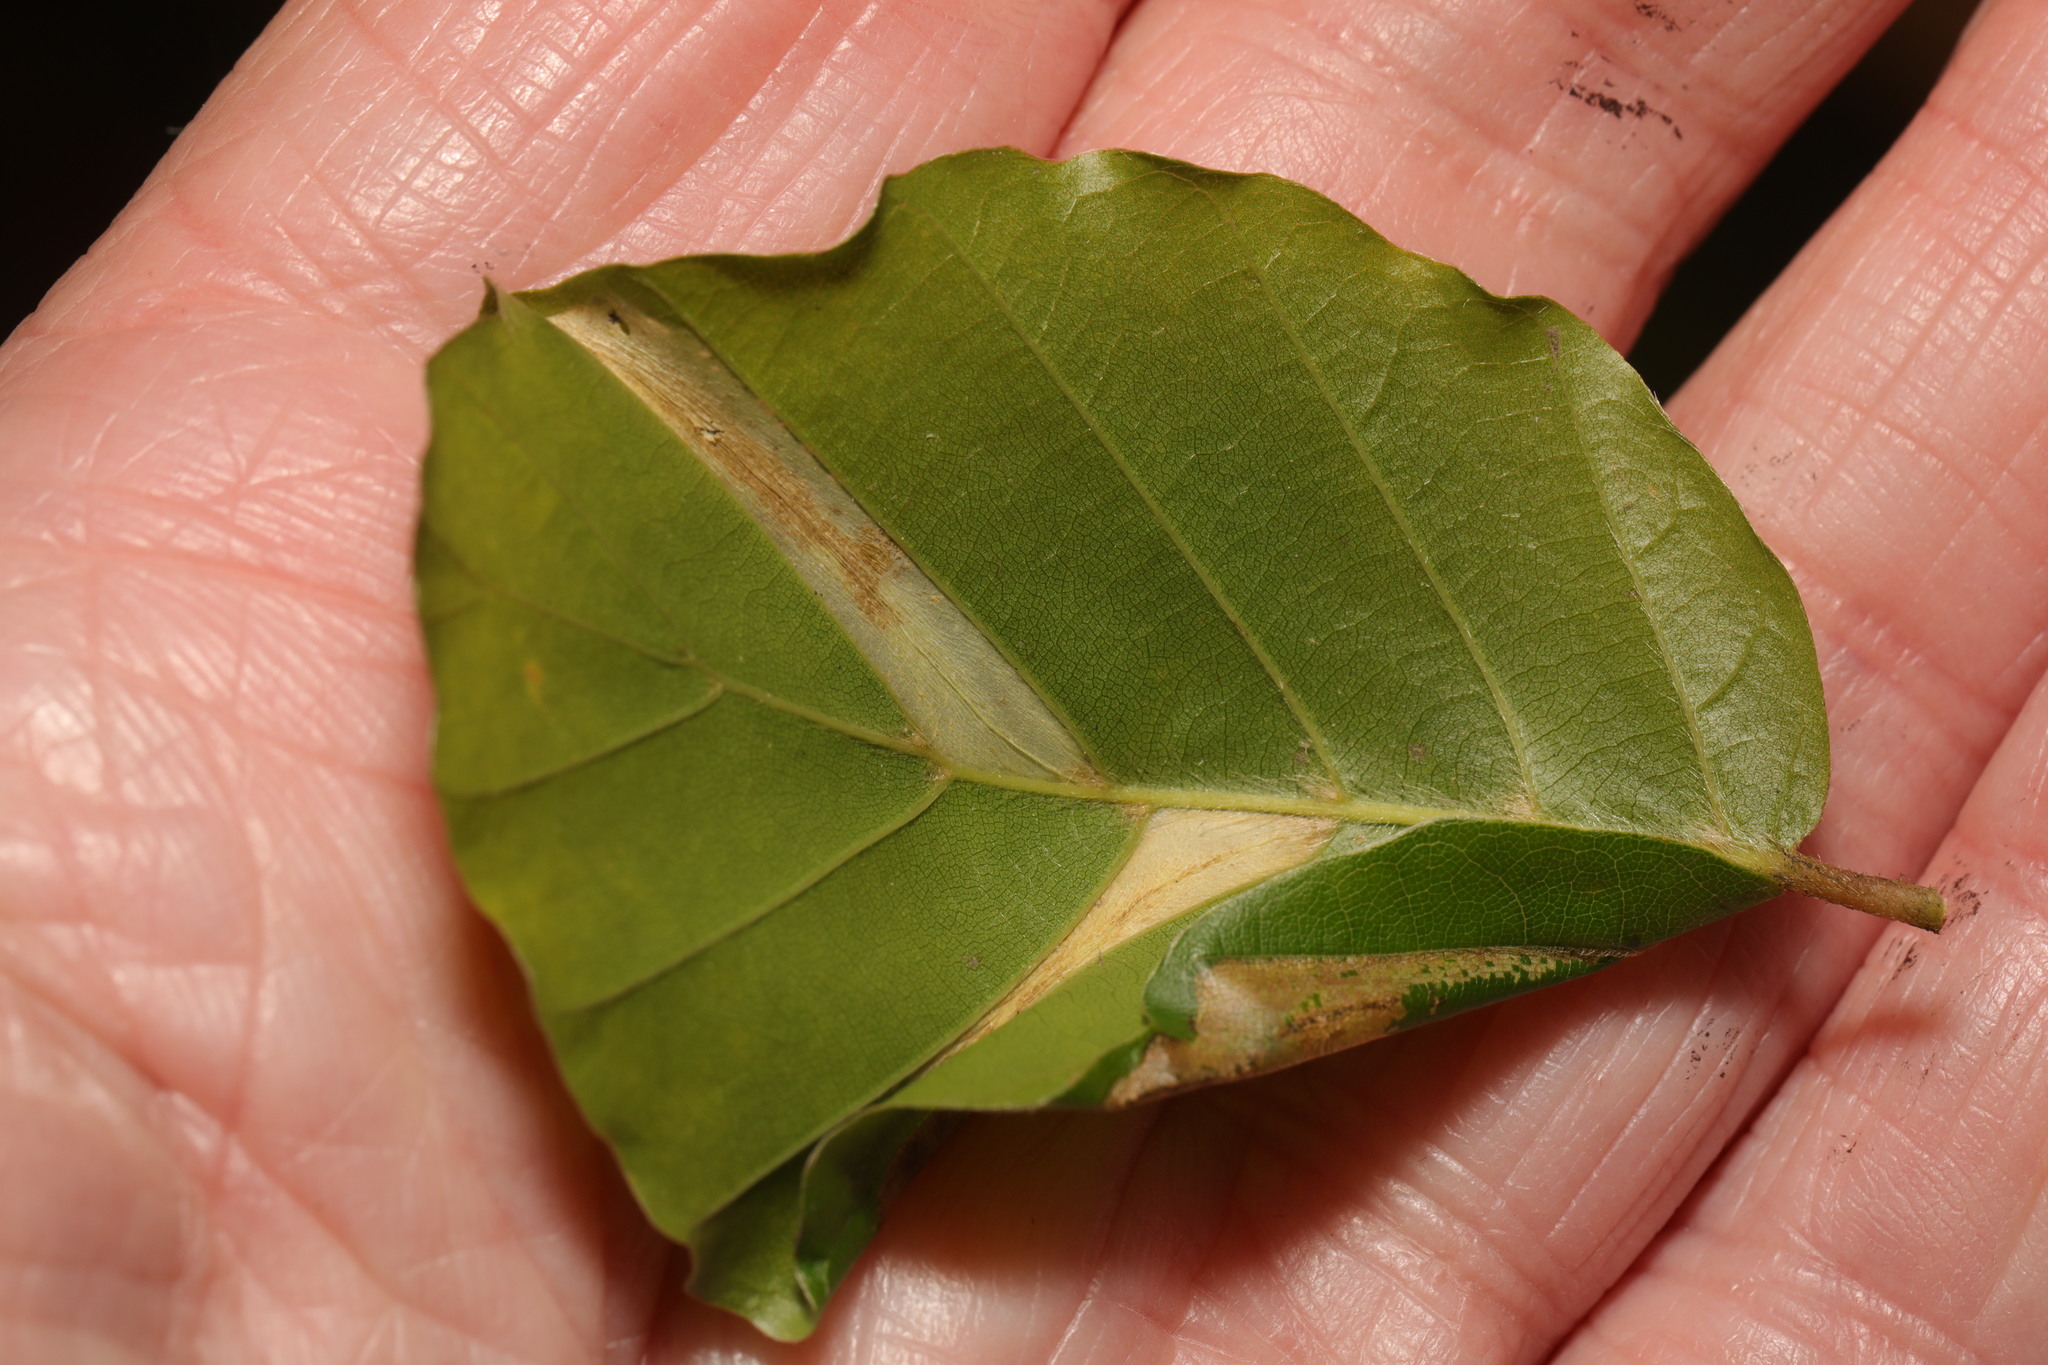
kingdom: Animalia
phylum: Arthropoda
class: Insecta
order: Lepidoptera
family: Gracillariidae
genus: Phyllonorycter
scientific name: Phyllonorycter maestingella
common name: Beech midget
